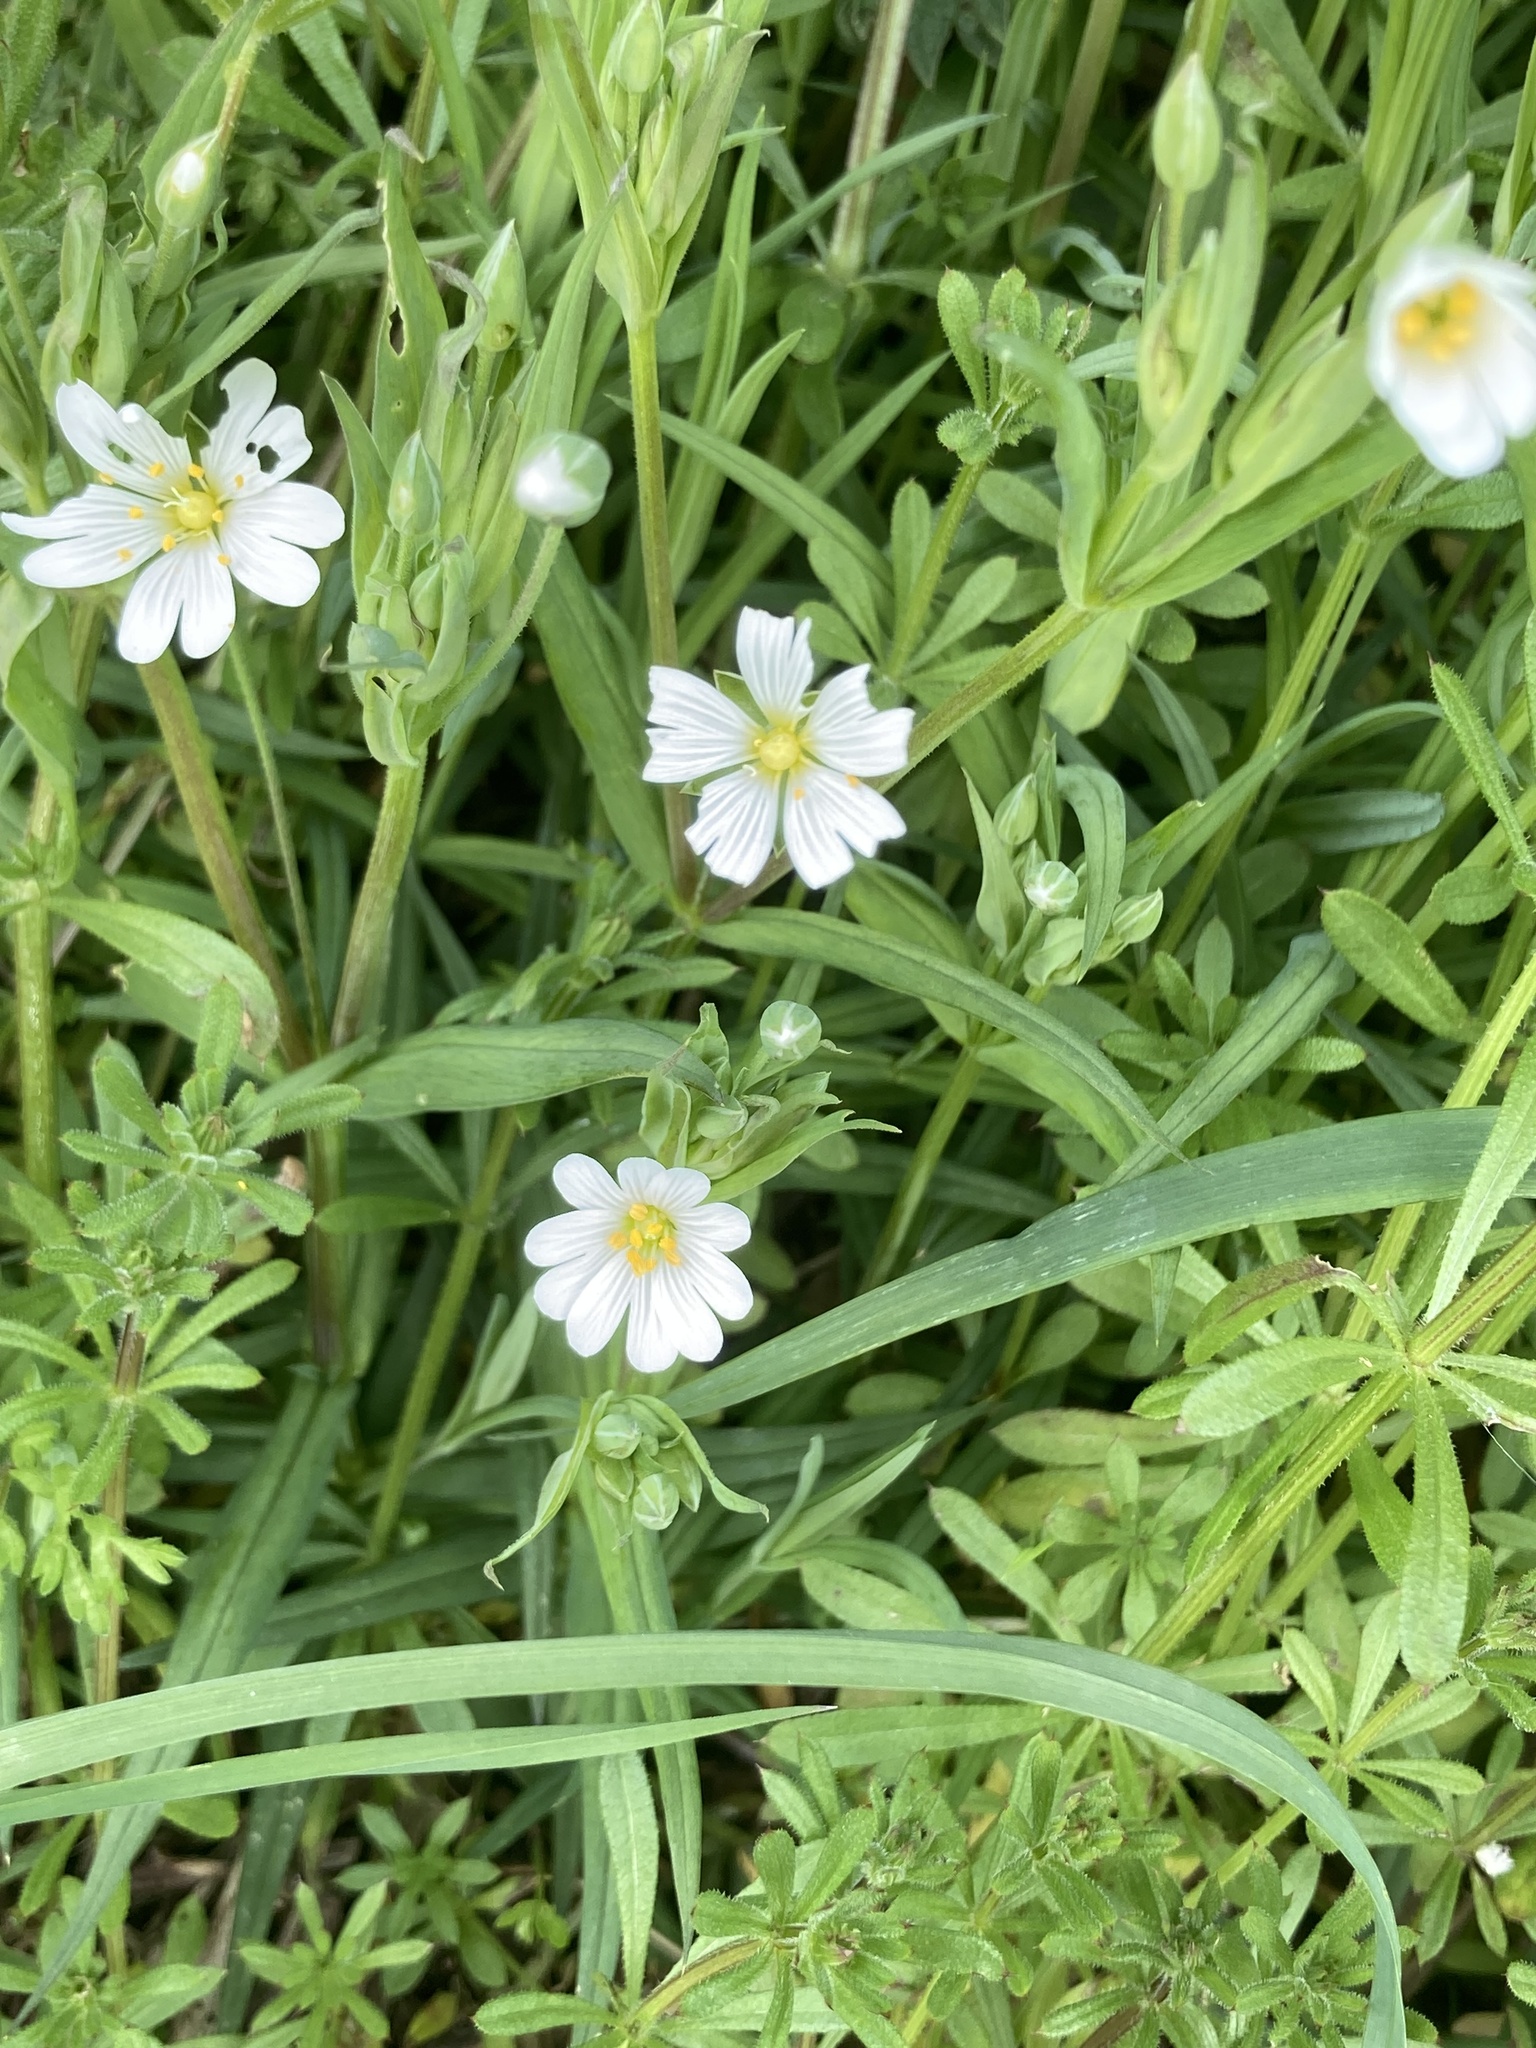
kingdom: Plantae
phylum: Tracheophyta
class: Magnoliopsida
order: Caryophyllales
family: Caryophyllaceae
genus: Rabelera
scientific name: Rabelera holostea
